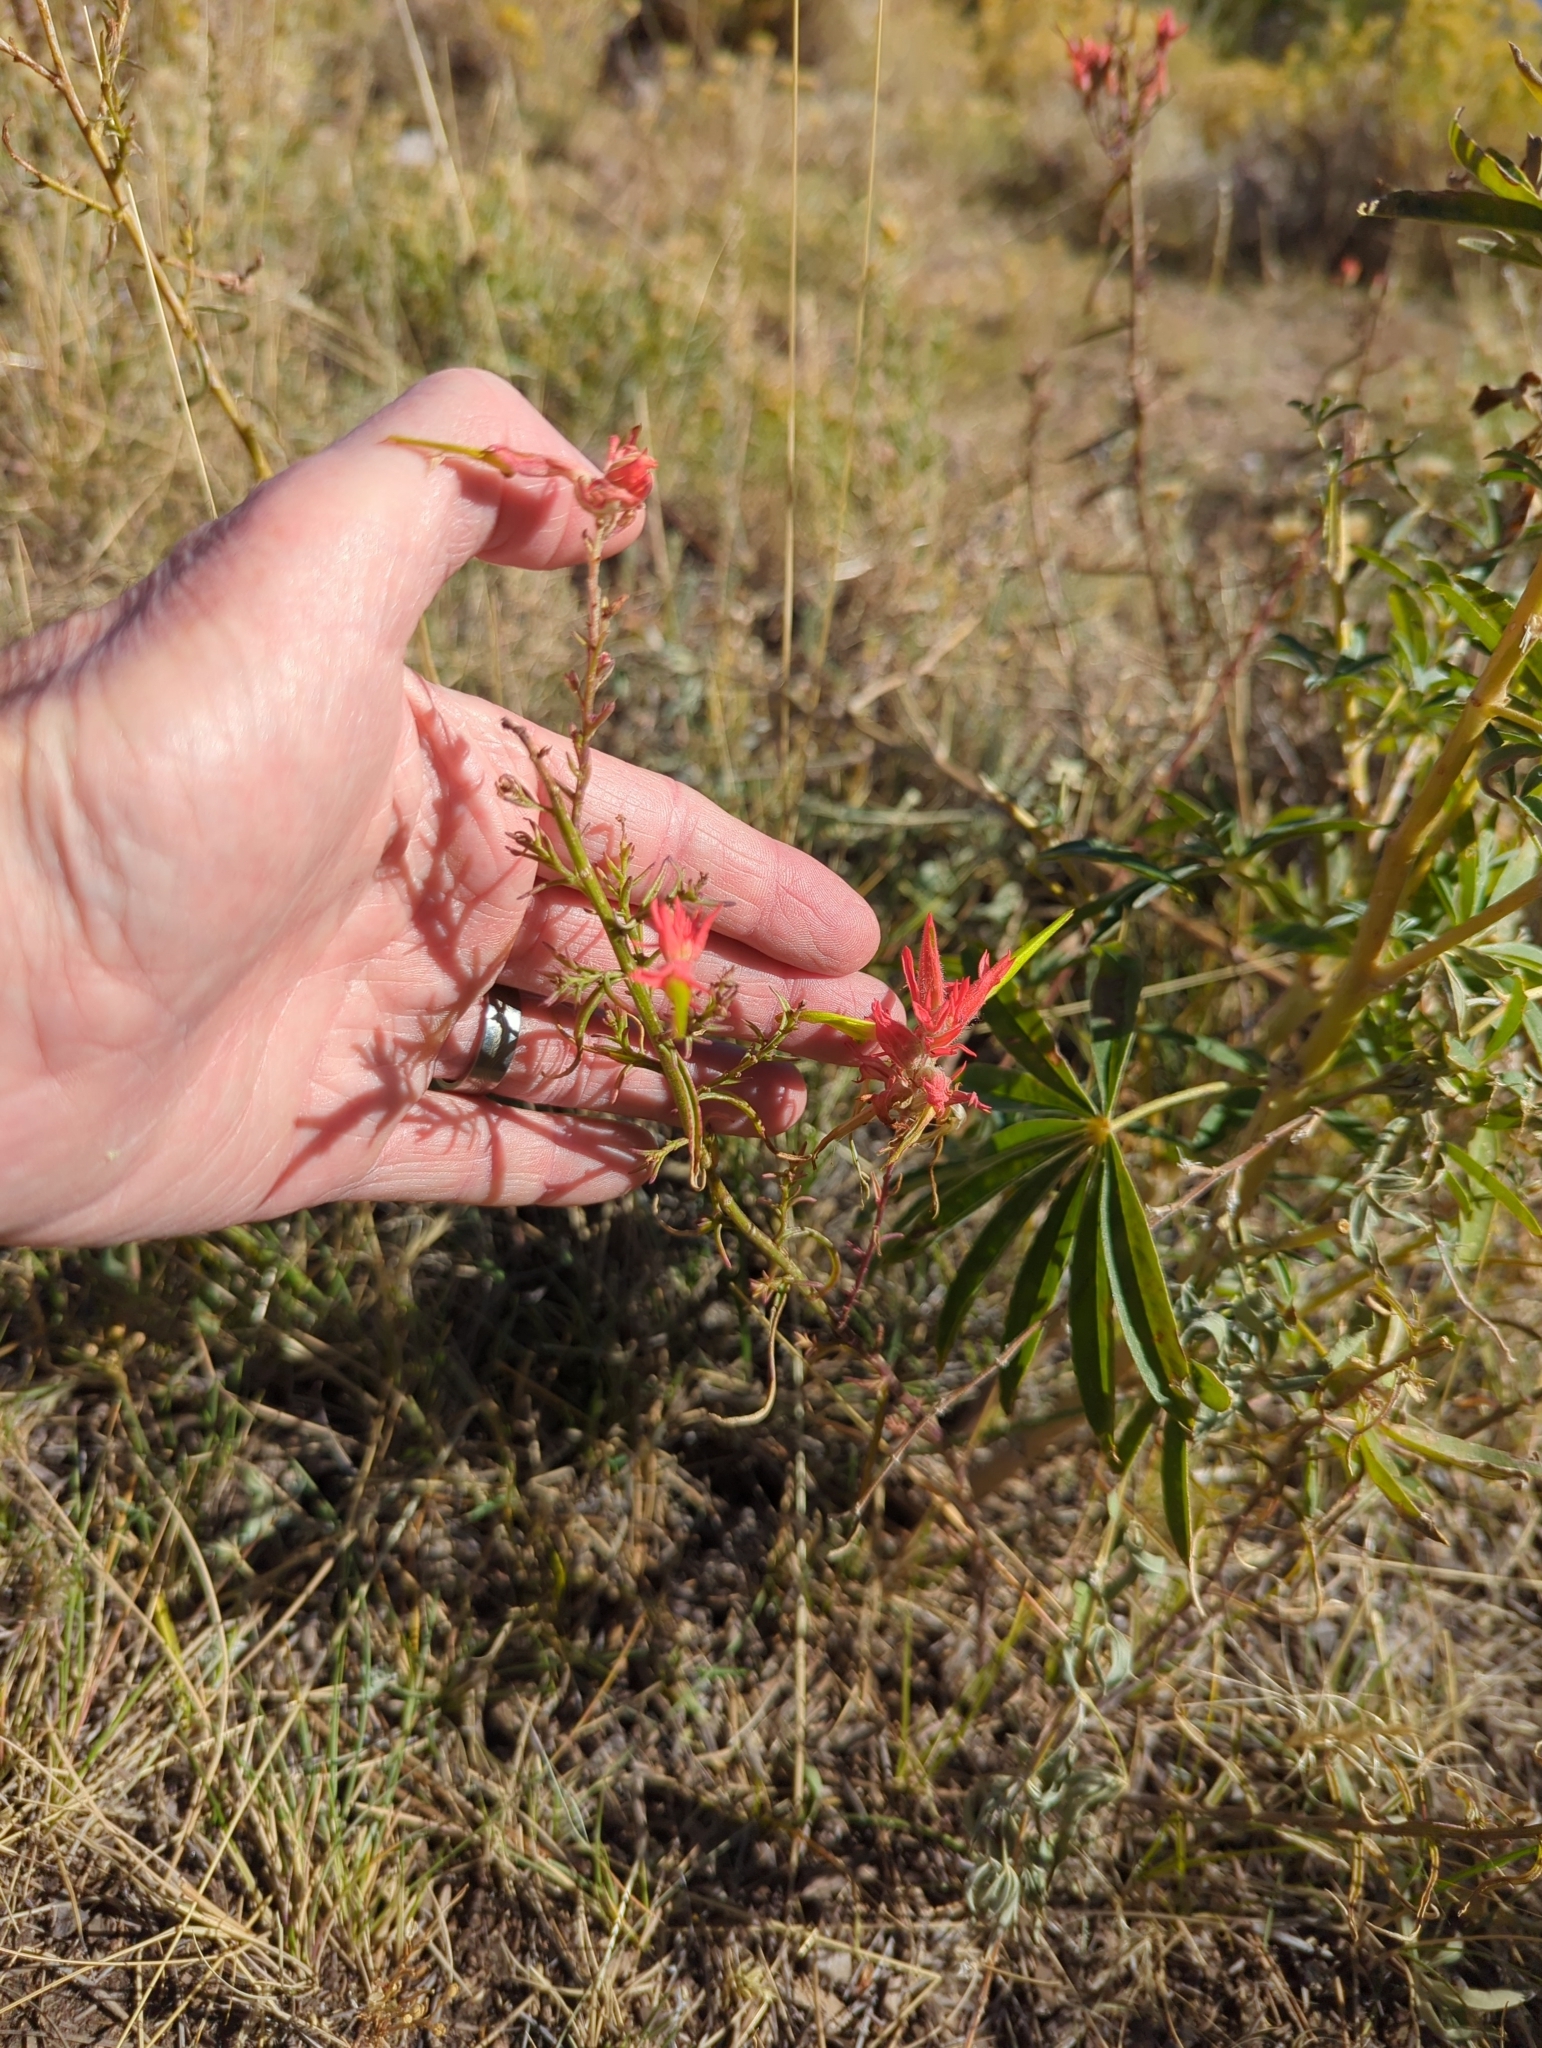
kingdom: Plantae
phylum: Tracheophyta
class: Magnoliopsida
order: Lamiales
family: Orobanchaceae
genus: Castilleja
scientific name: Castilleja linariifolia
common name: Wyoming paintbrush
